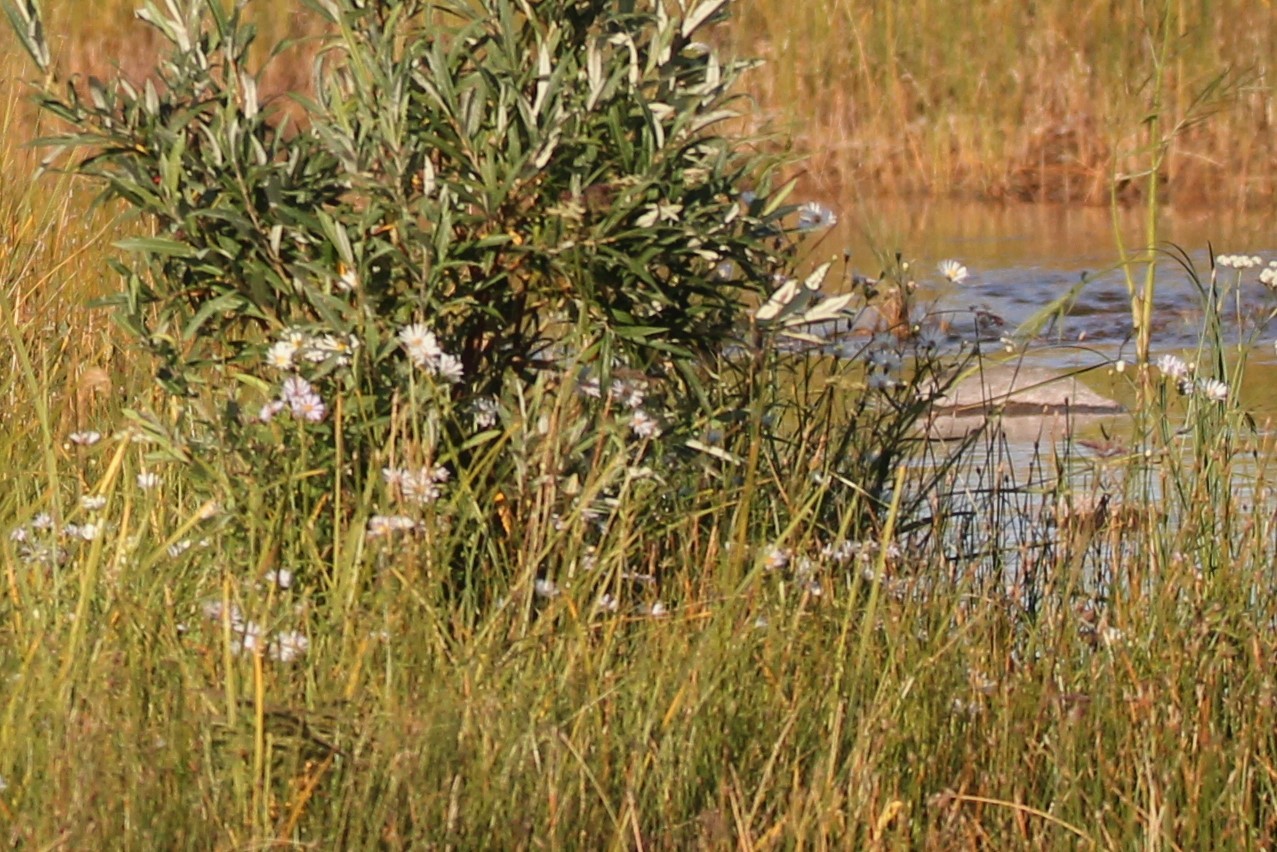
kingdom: Plantae
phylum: Tracheophyta
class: Magnoliopsida
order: Asterales
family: Asteraceae
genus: Symphyotrichum
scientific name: Symphyotrichum boreale
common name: Northern bog aster
